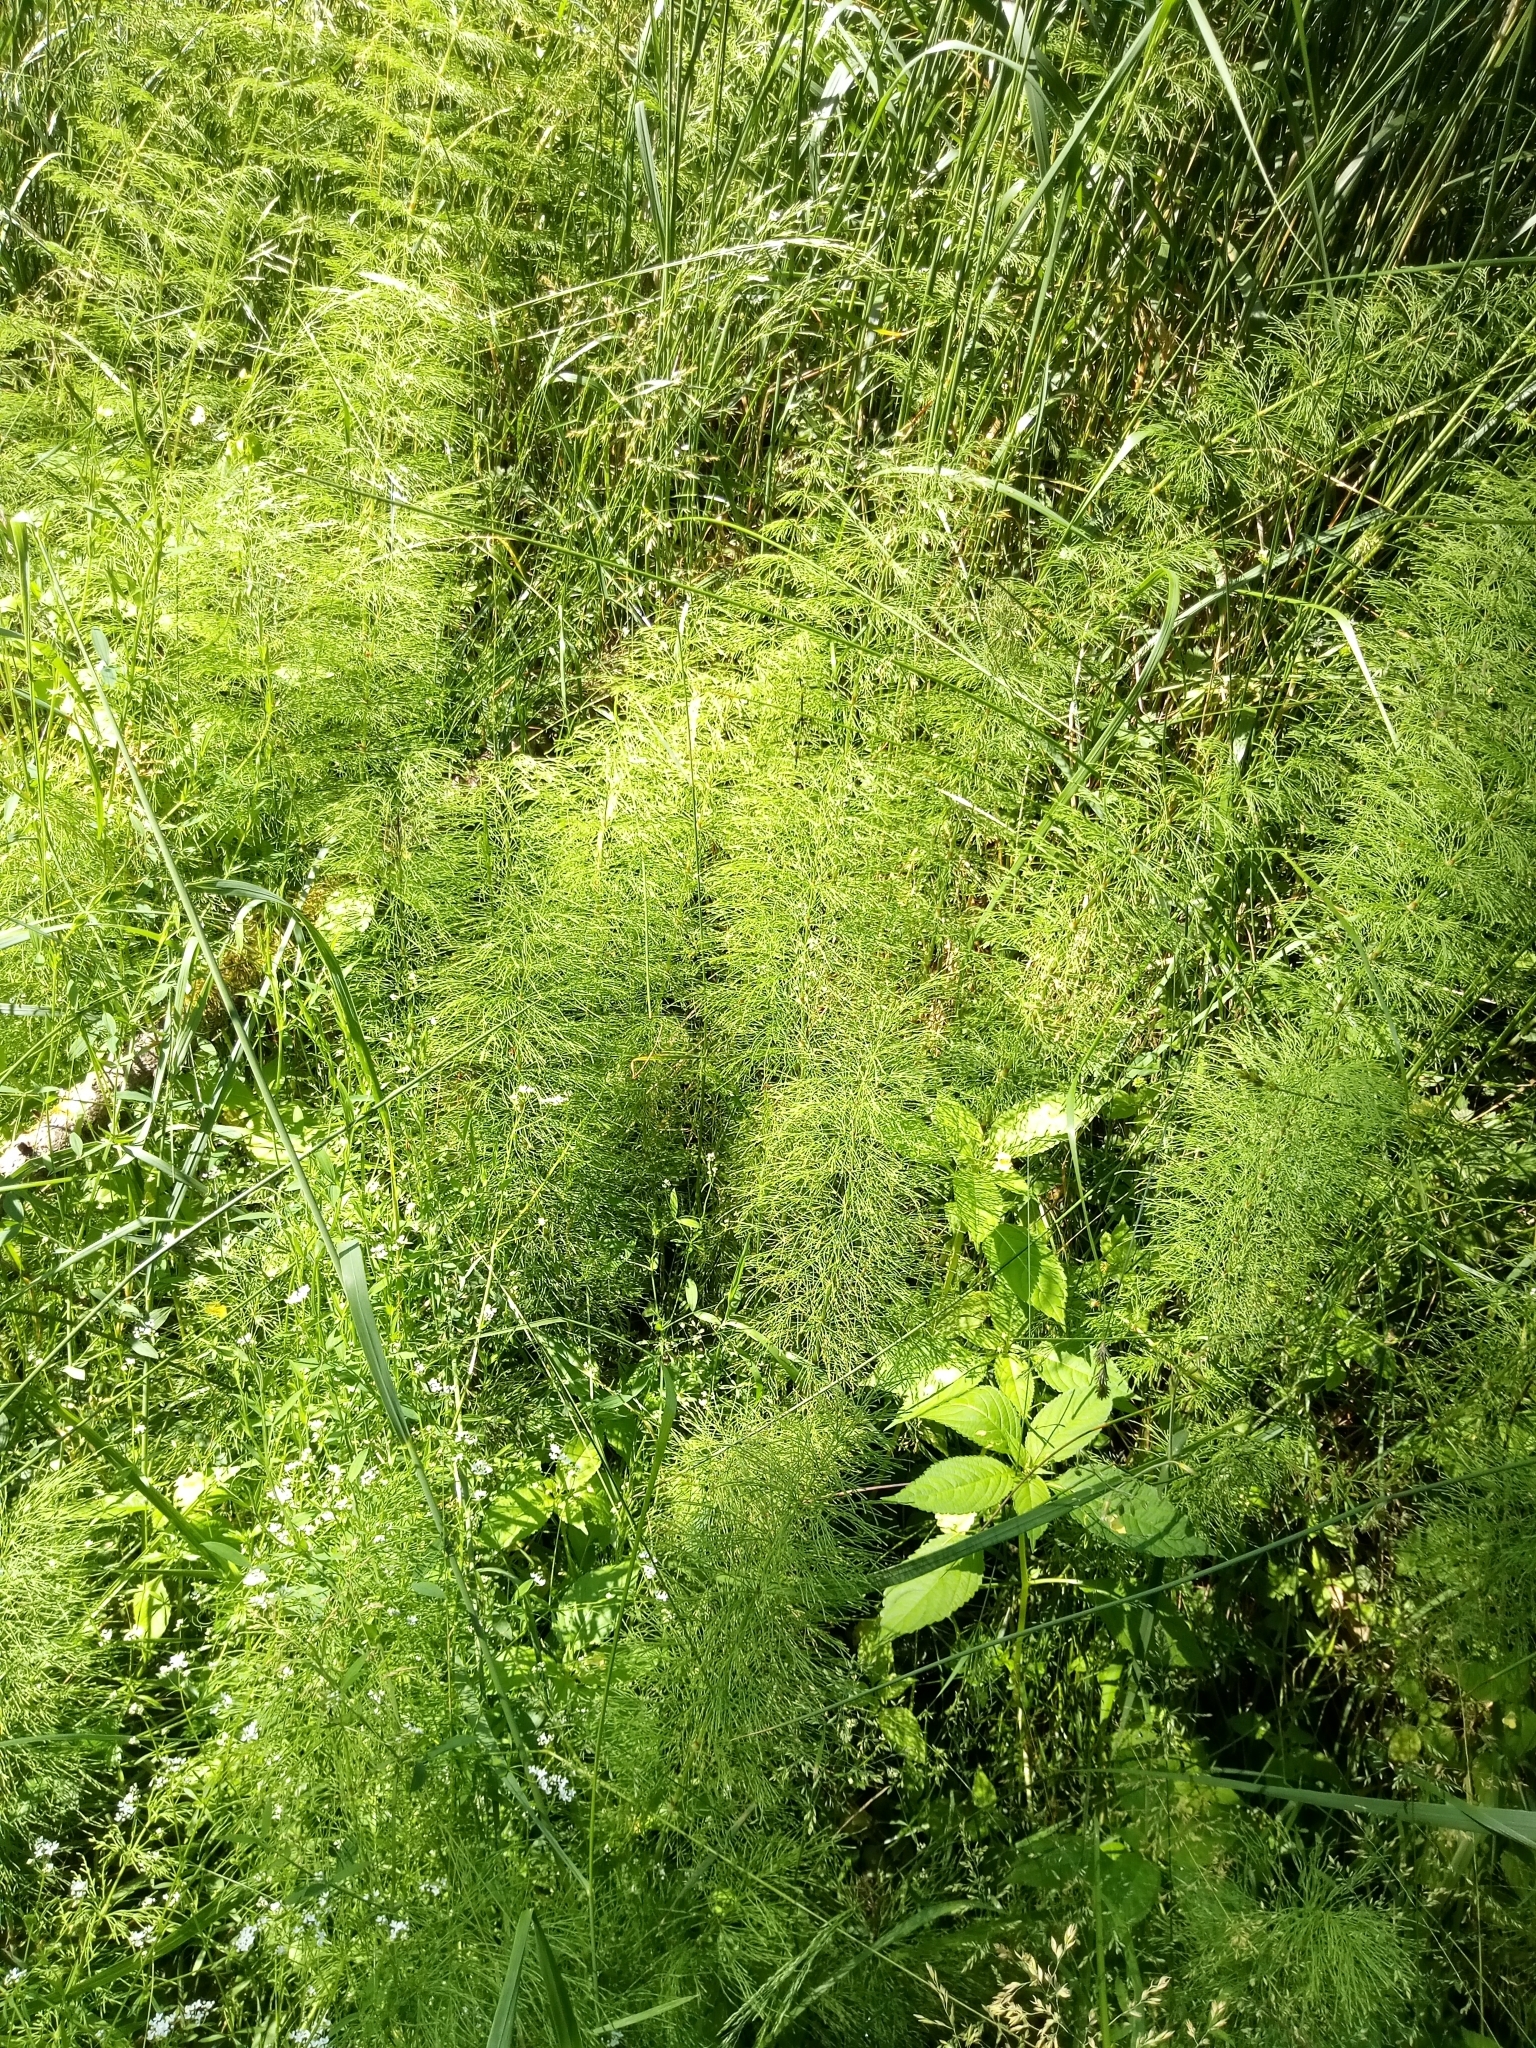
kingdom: Plantae
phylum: Tracheophyta
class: Polypodiopsida
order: Equisetales
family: Equisetaceae
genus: Equisetum
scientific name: Equisetum sylvaticum
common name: Wood horsetail
